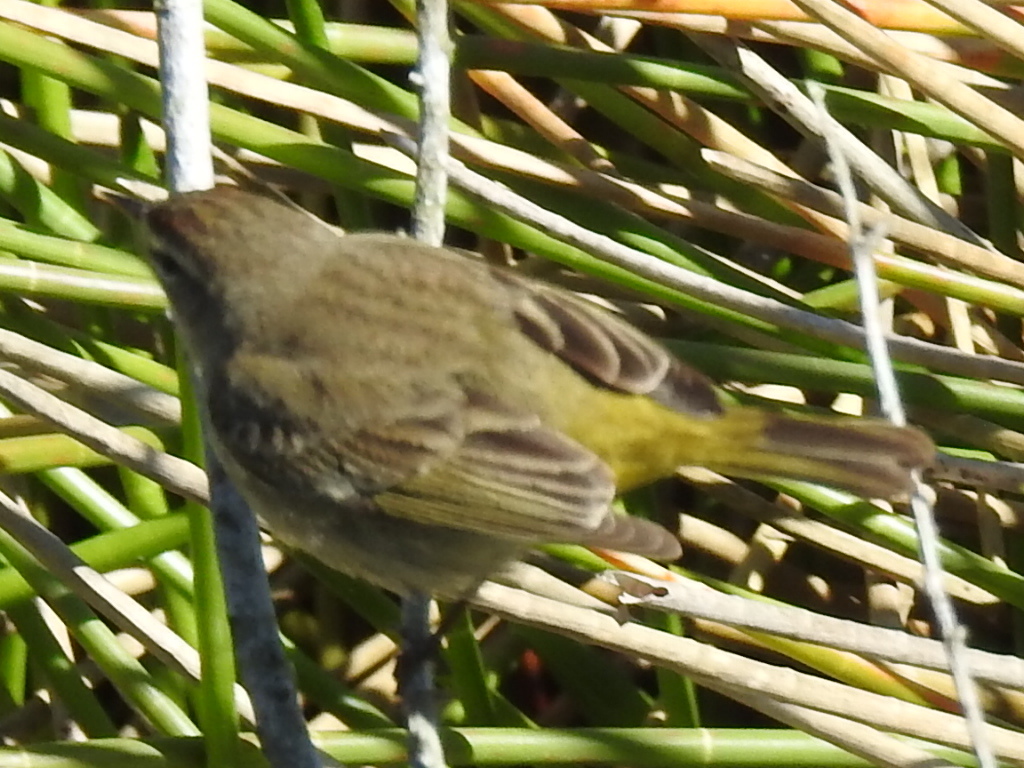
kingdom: Animalia
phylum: Chordata
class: Aves
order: Passeriformes
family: Parulidae
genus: Setophaga
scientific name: Setophaga palmarum
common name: Palm warbler
